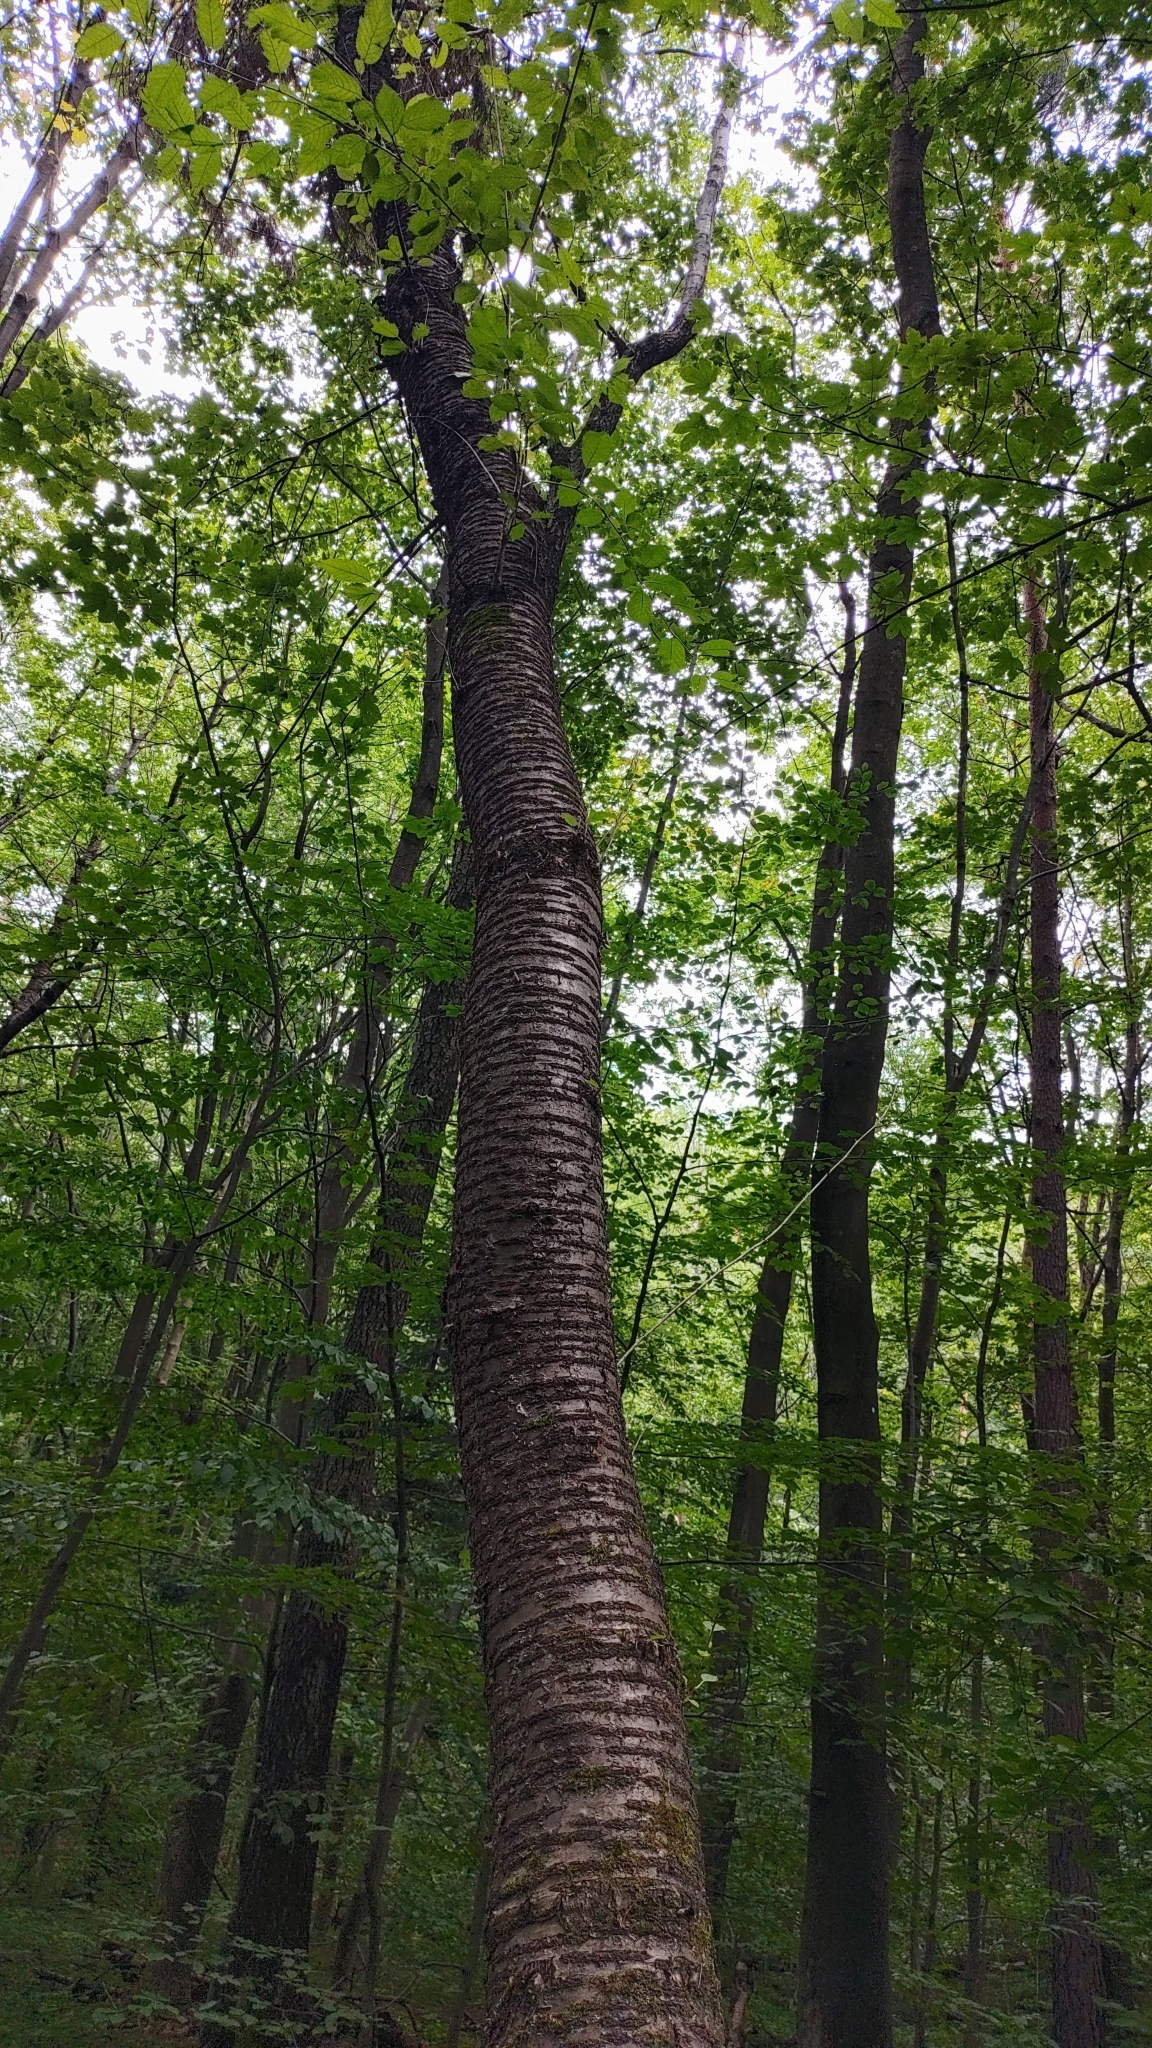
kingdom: Plantae
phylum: Tracheophyta
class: Magnoliopsida
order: Rosales
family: Rosaceae
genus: Prunus
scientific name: Prunus avium
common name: Sweet cherry
